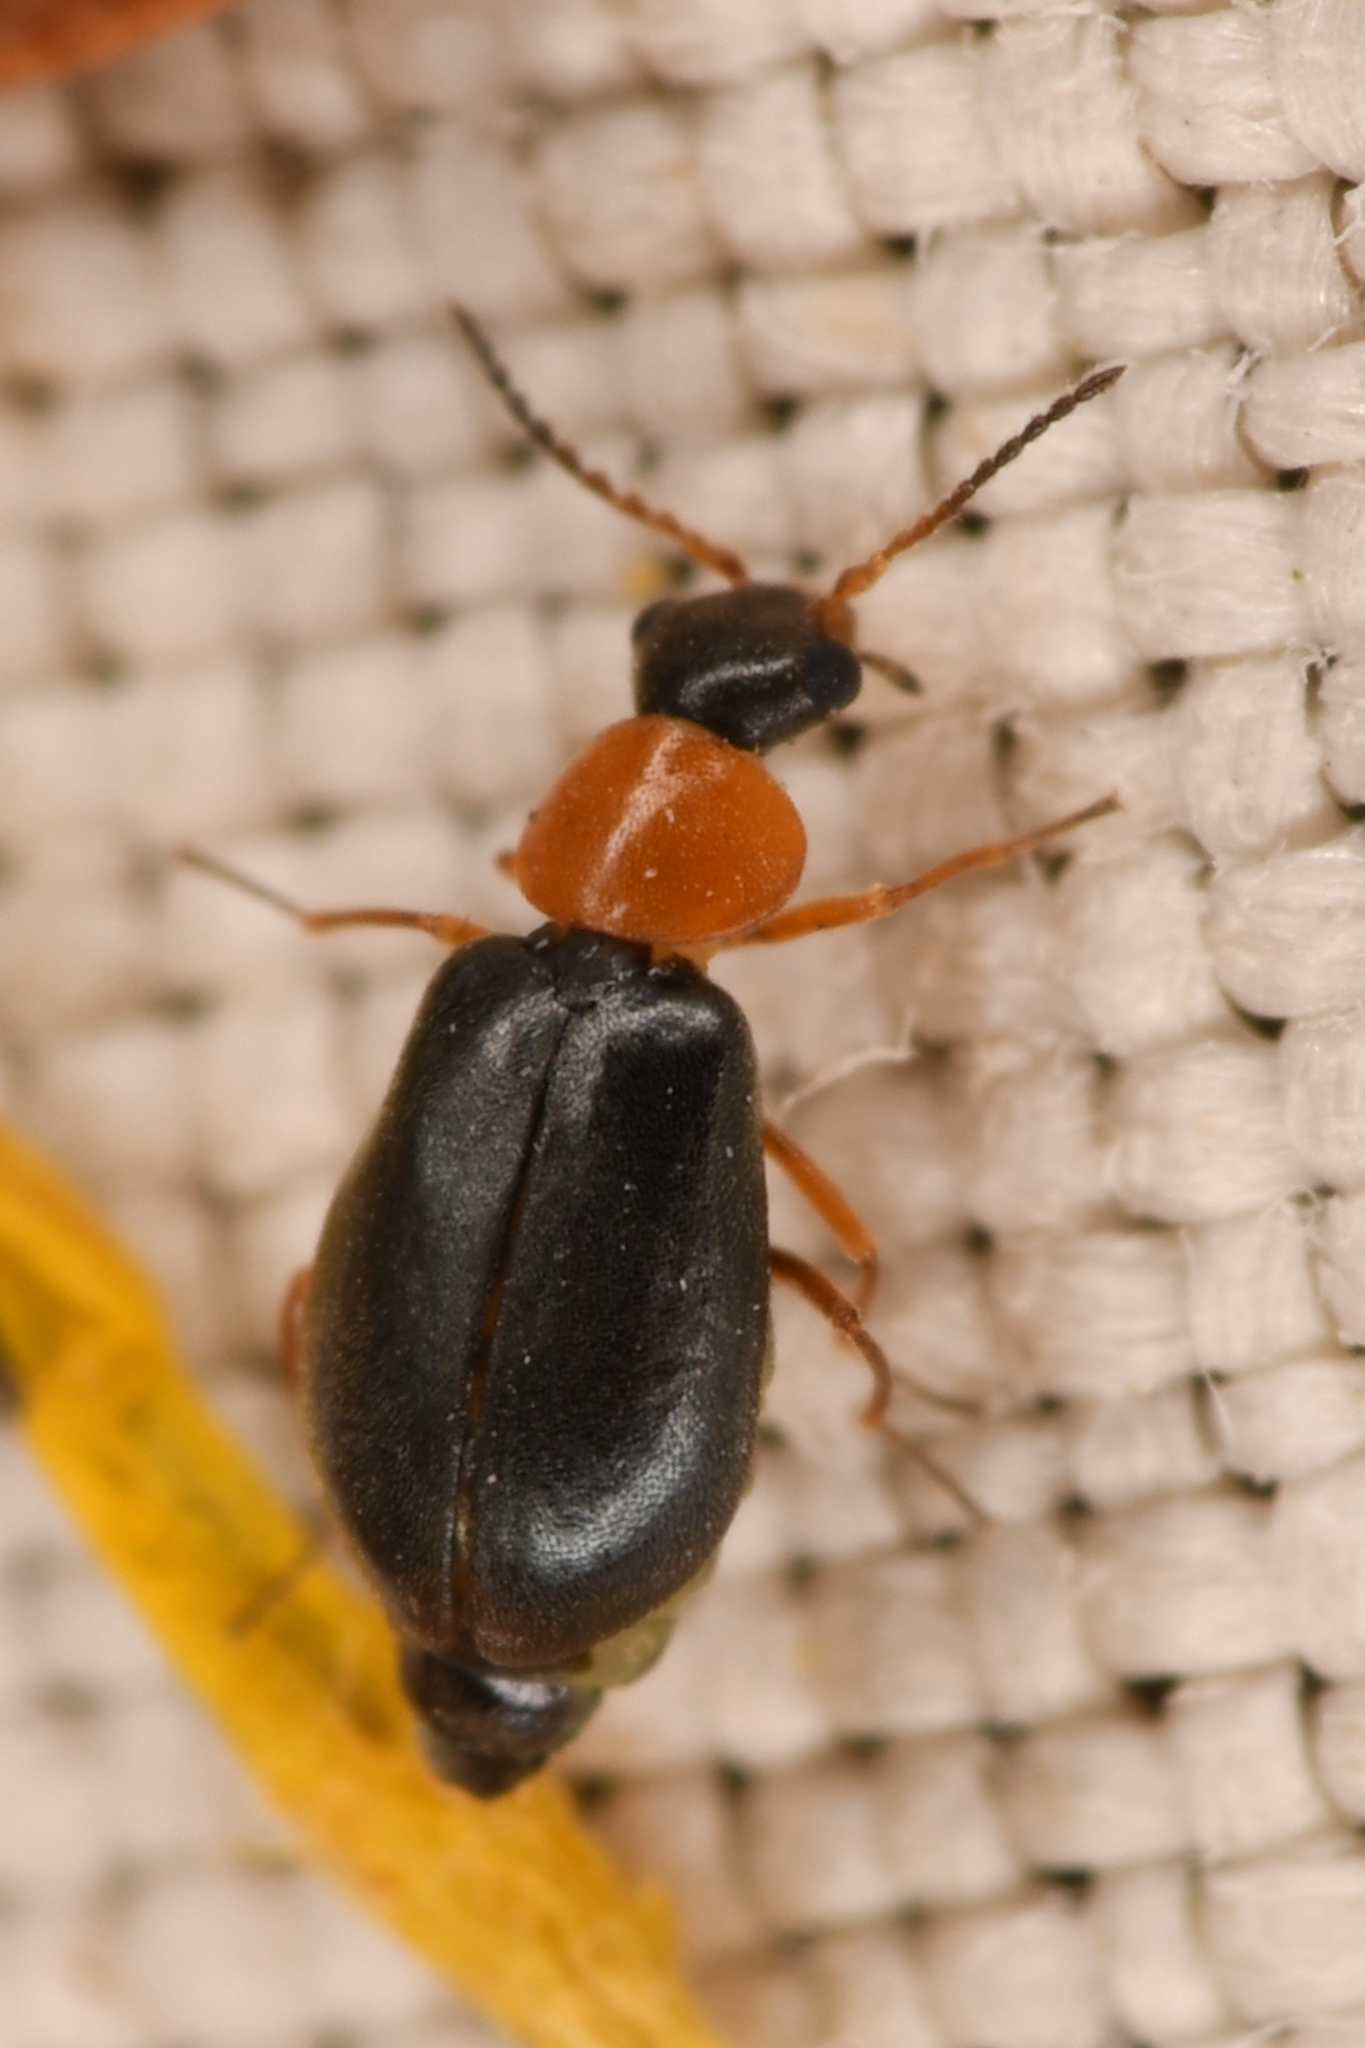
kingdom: Animalia
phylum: Arthropoda
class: Insecta
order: Coleoptera
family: Melyridae
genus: Hypebaeus
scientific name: Hypebaeus bicolor
